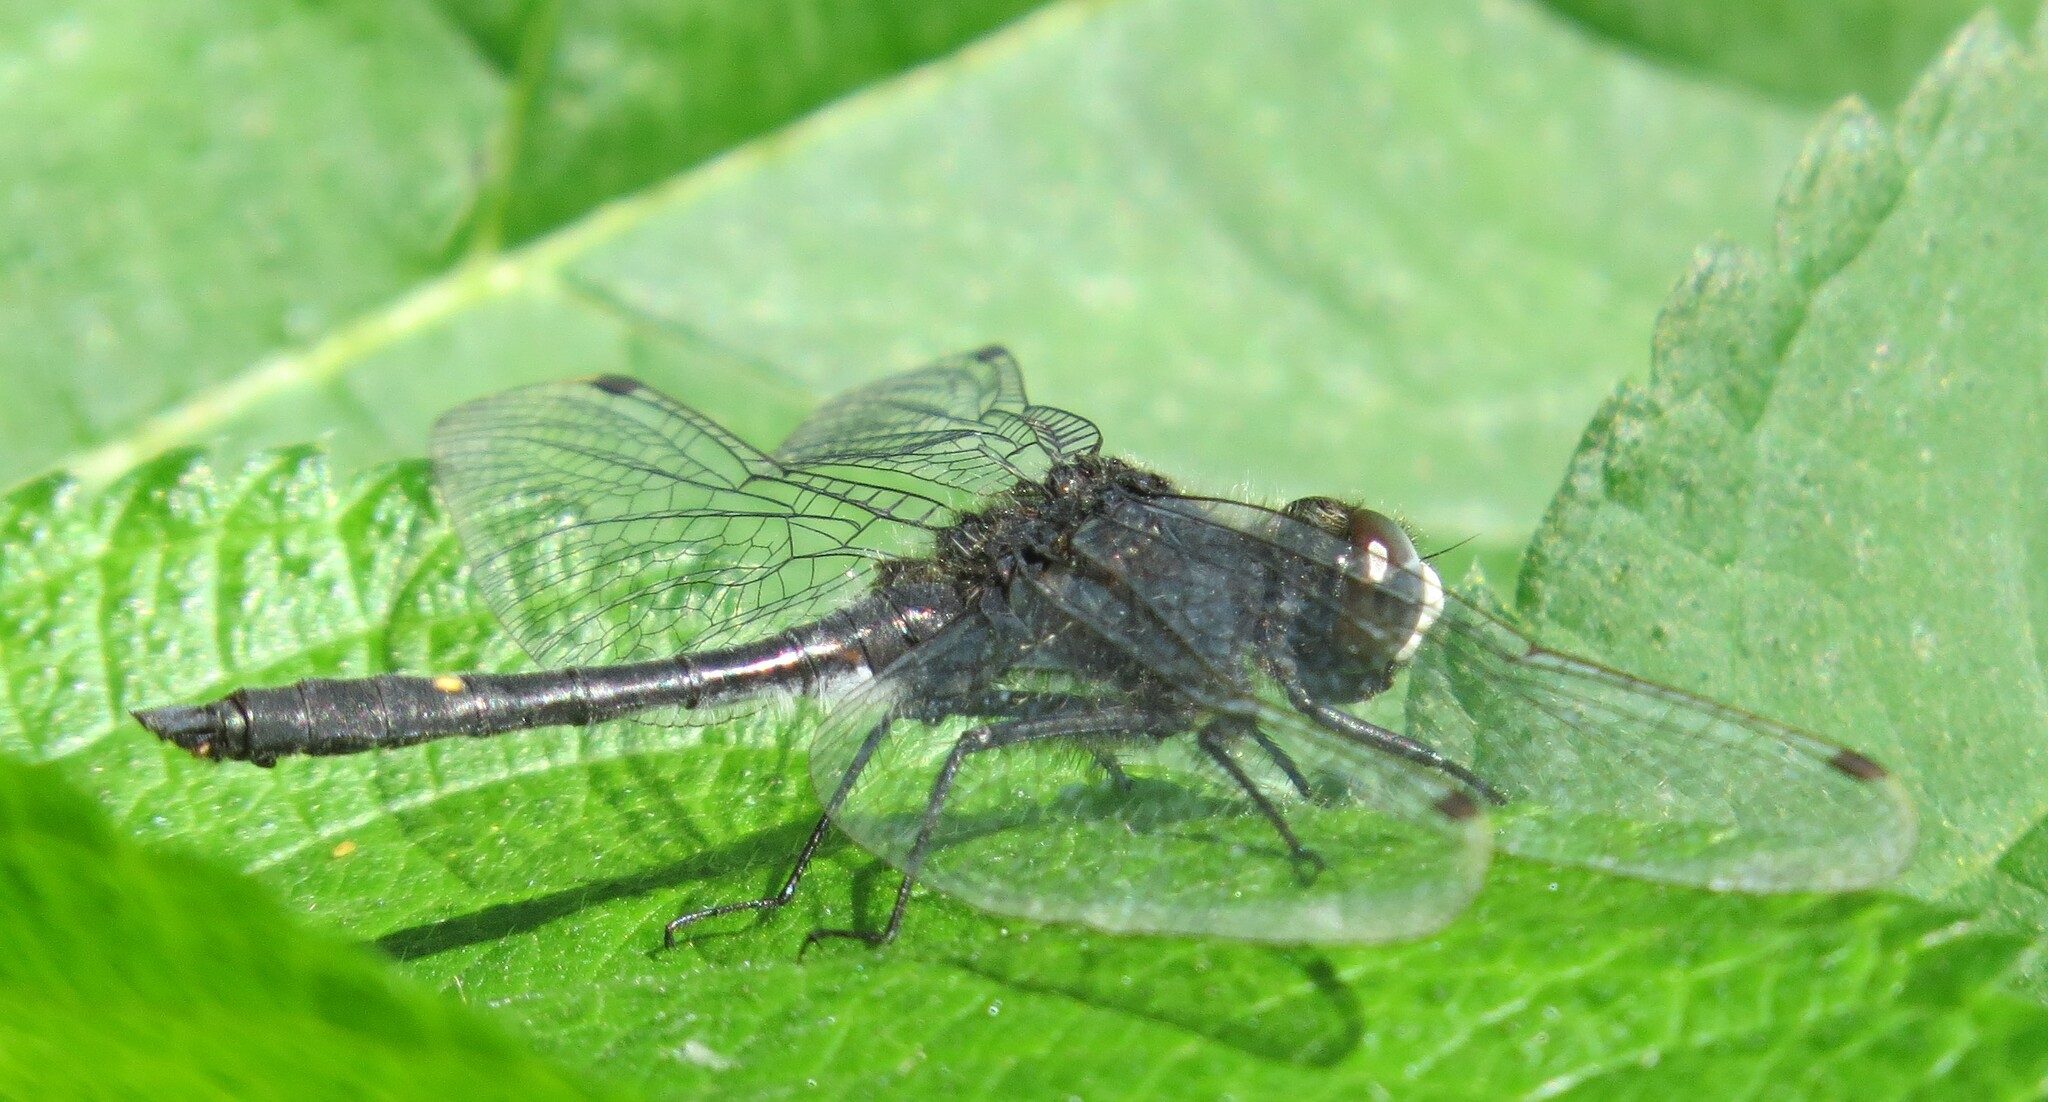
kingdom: Animalia
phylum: Arthropoda
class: Insecta
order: Odonata
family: Libellulidae
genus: Leucorrhinia
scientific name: Leucorrhinia intacta
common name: Dot-tailed whiteface
